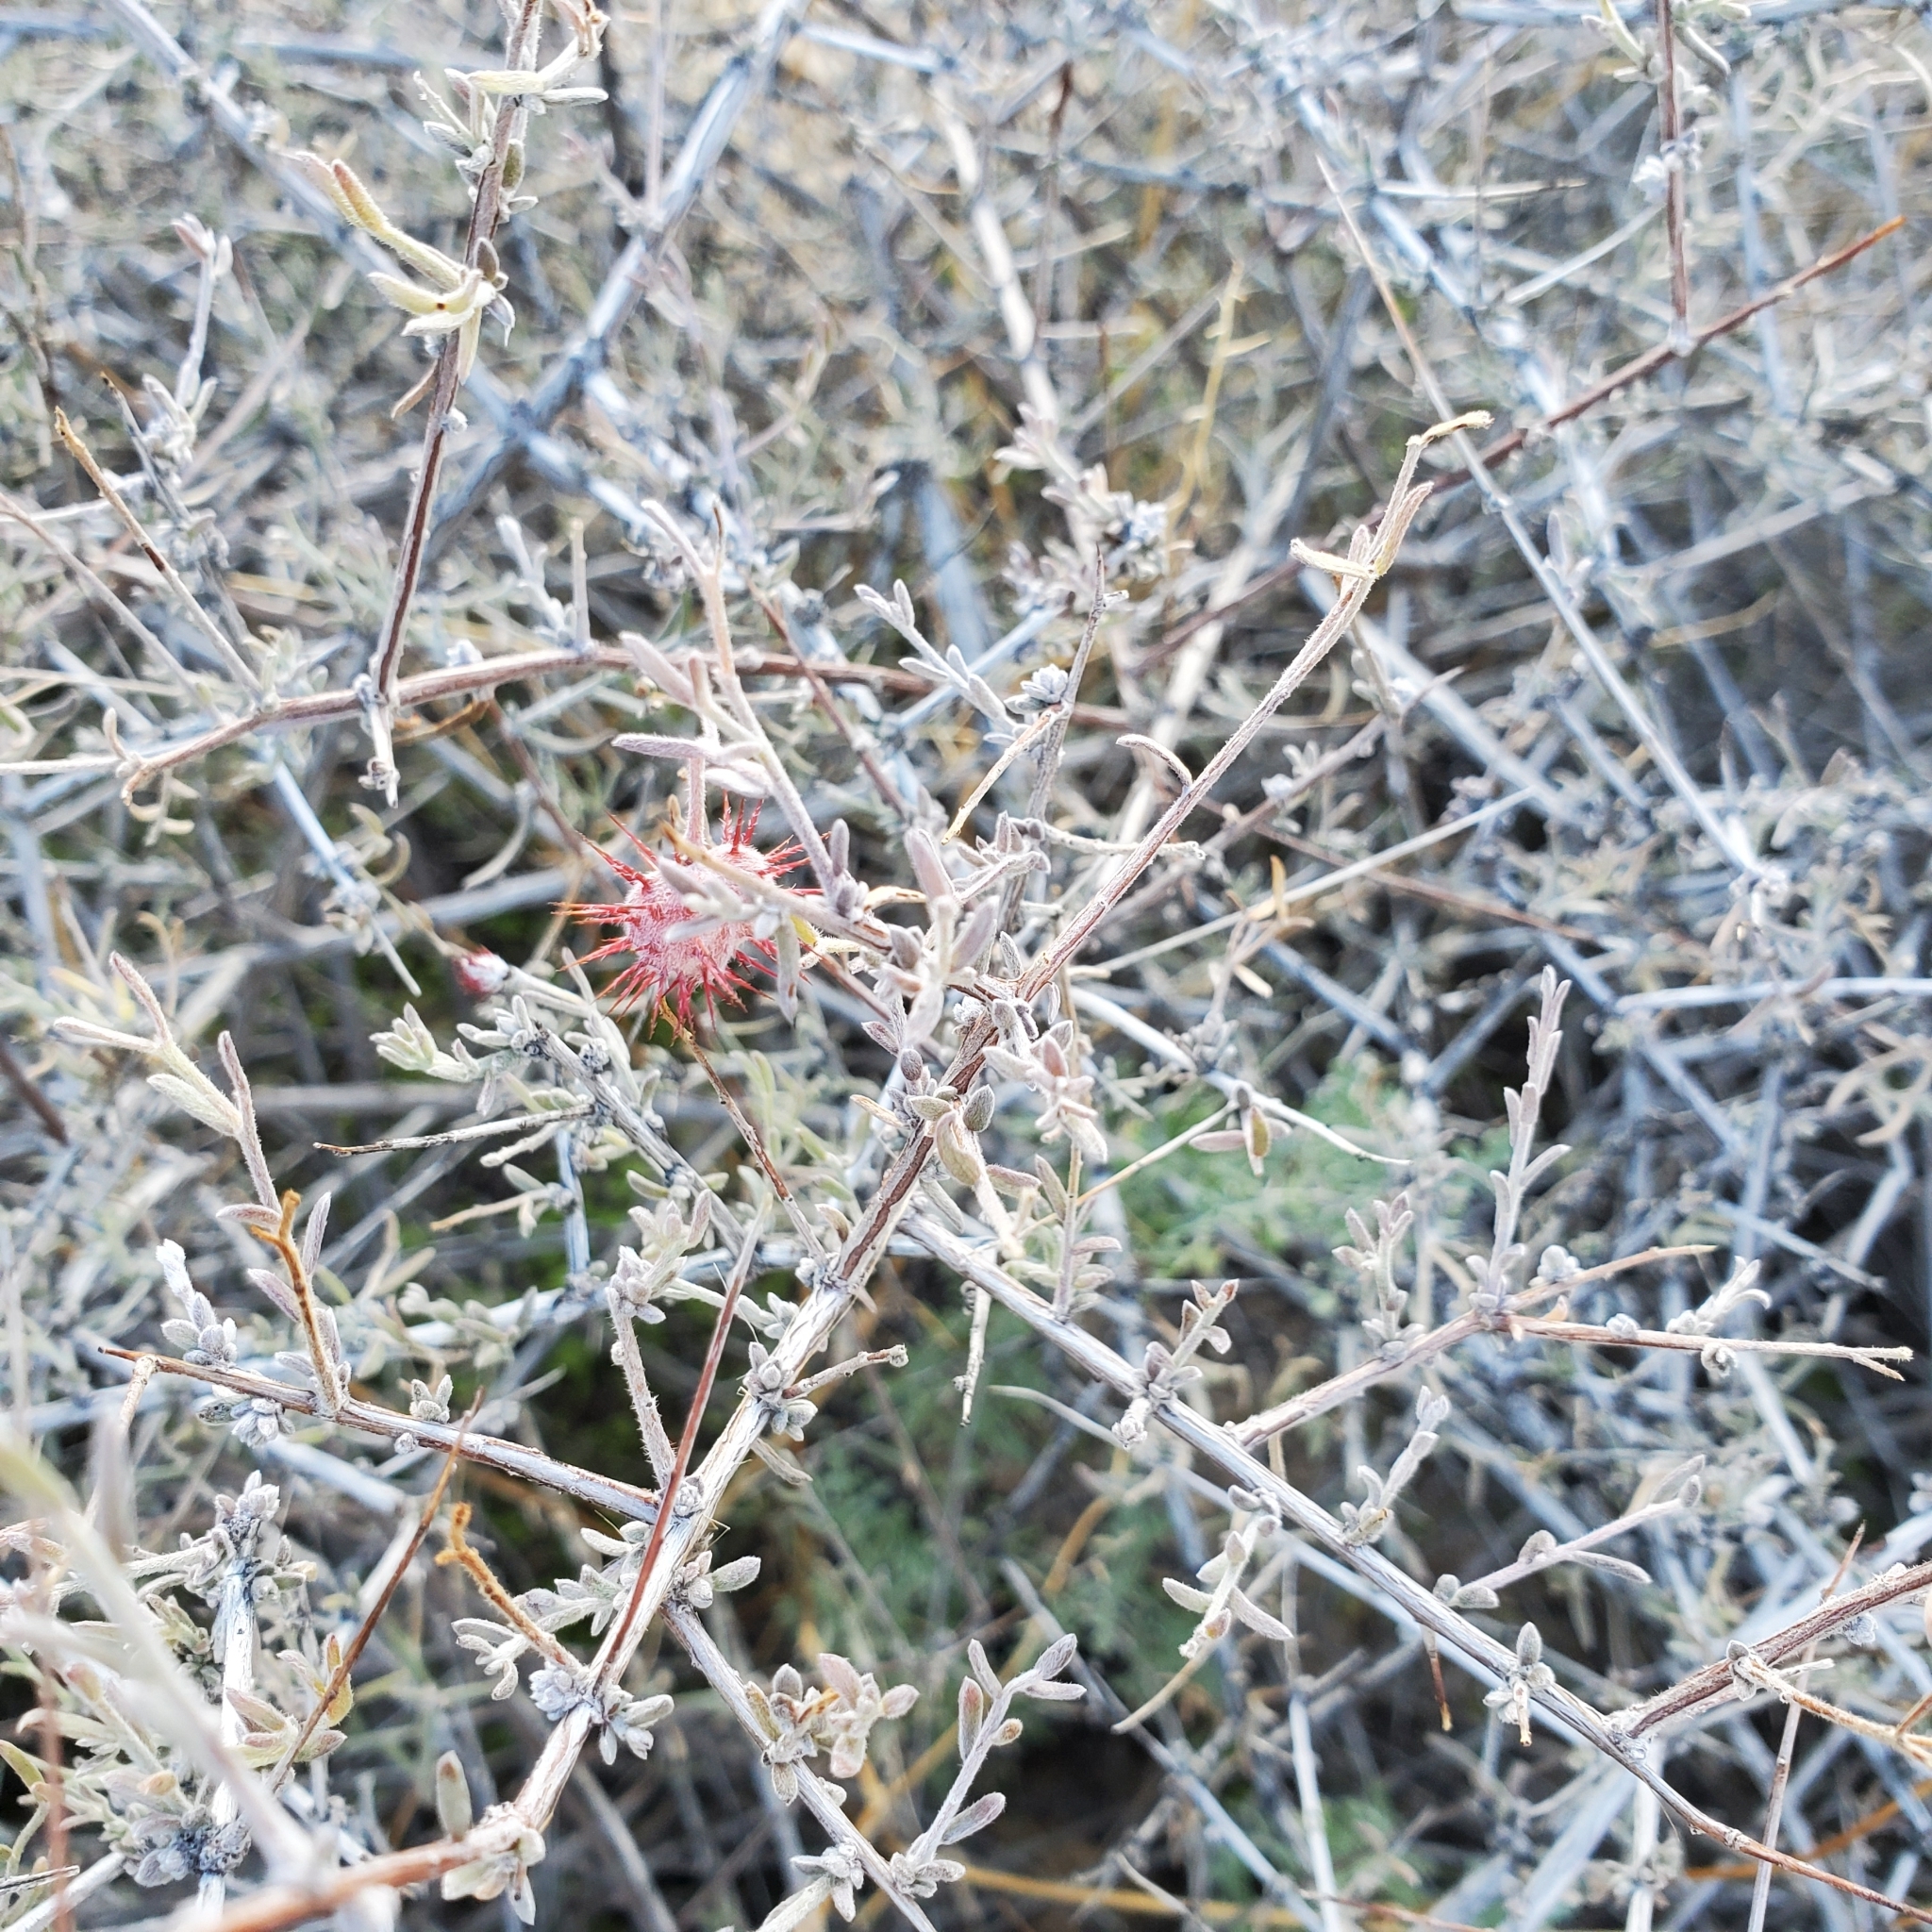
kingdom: Plantae
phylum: Tracheophyta
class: Magnoliopsida
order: Zygophyllales
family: Krameriaceae
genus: Krameria
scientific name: Krameria erecta
